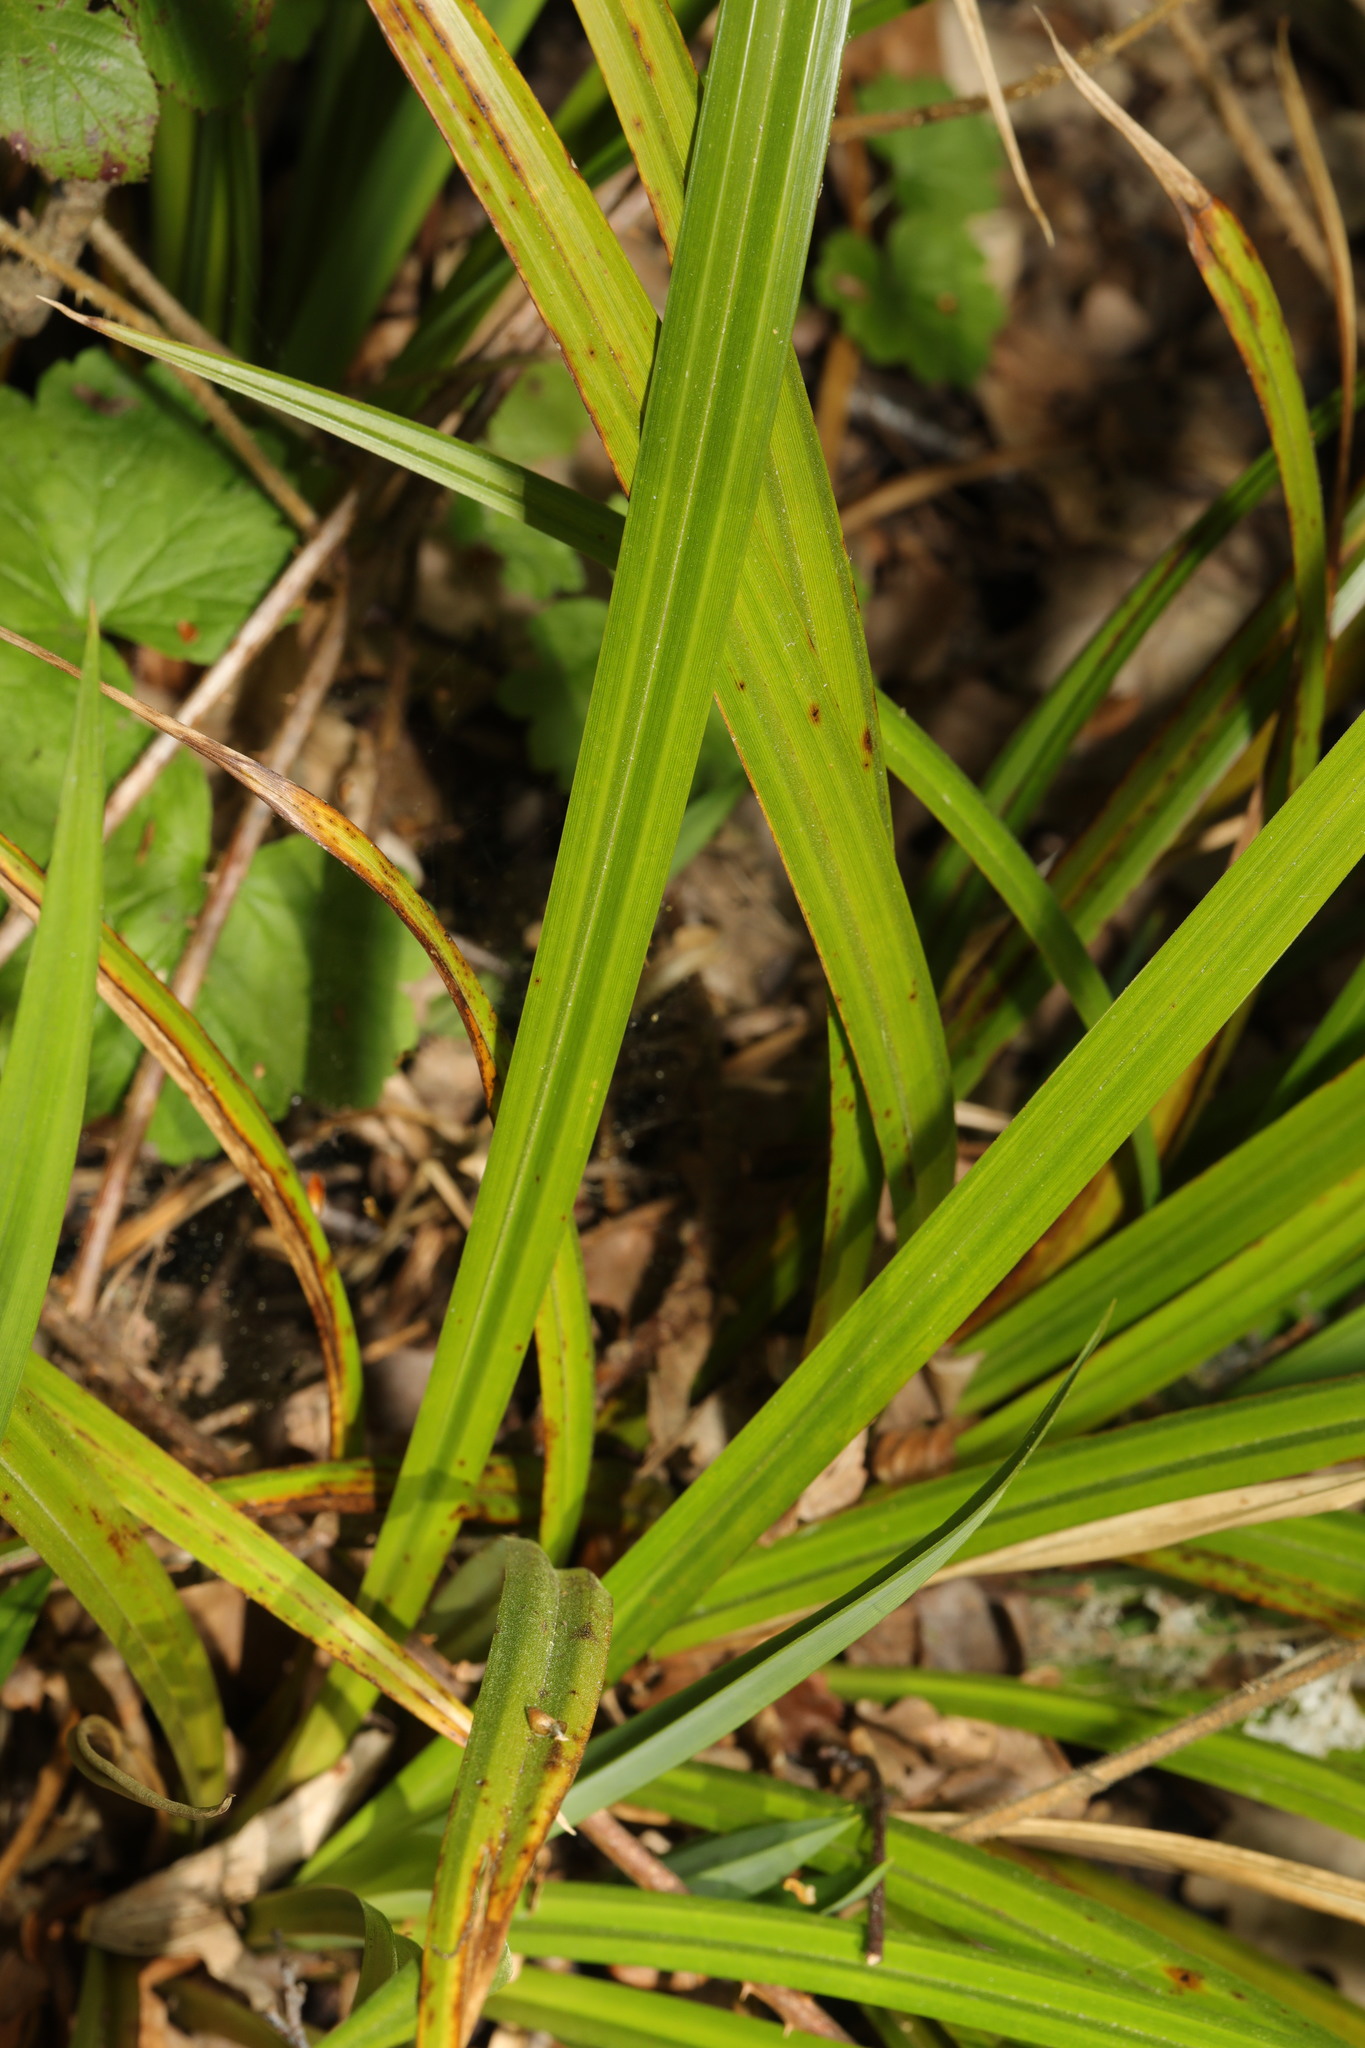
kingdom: Plantae
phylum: Tracheophyta
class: Liliopsida
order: Poales
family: Cyperaceae
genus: Carex
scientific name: Carex pendula
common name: Pendulous sedge
